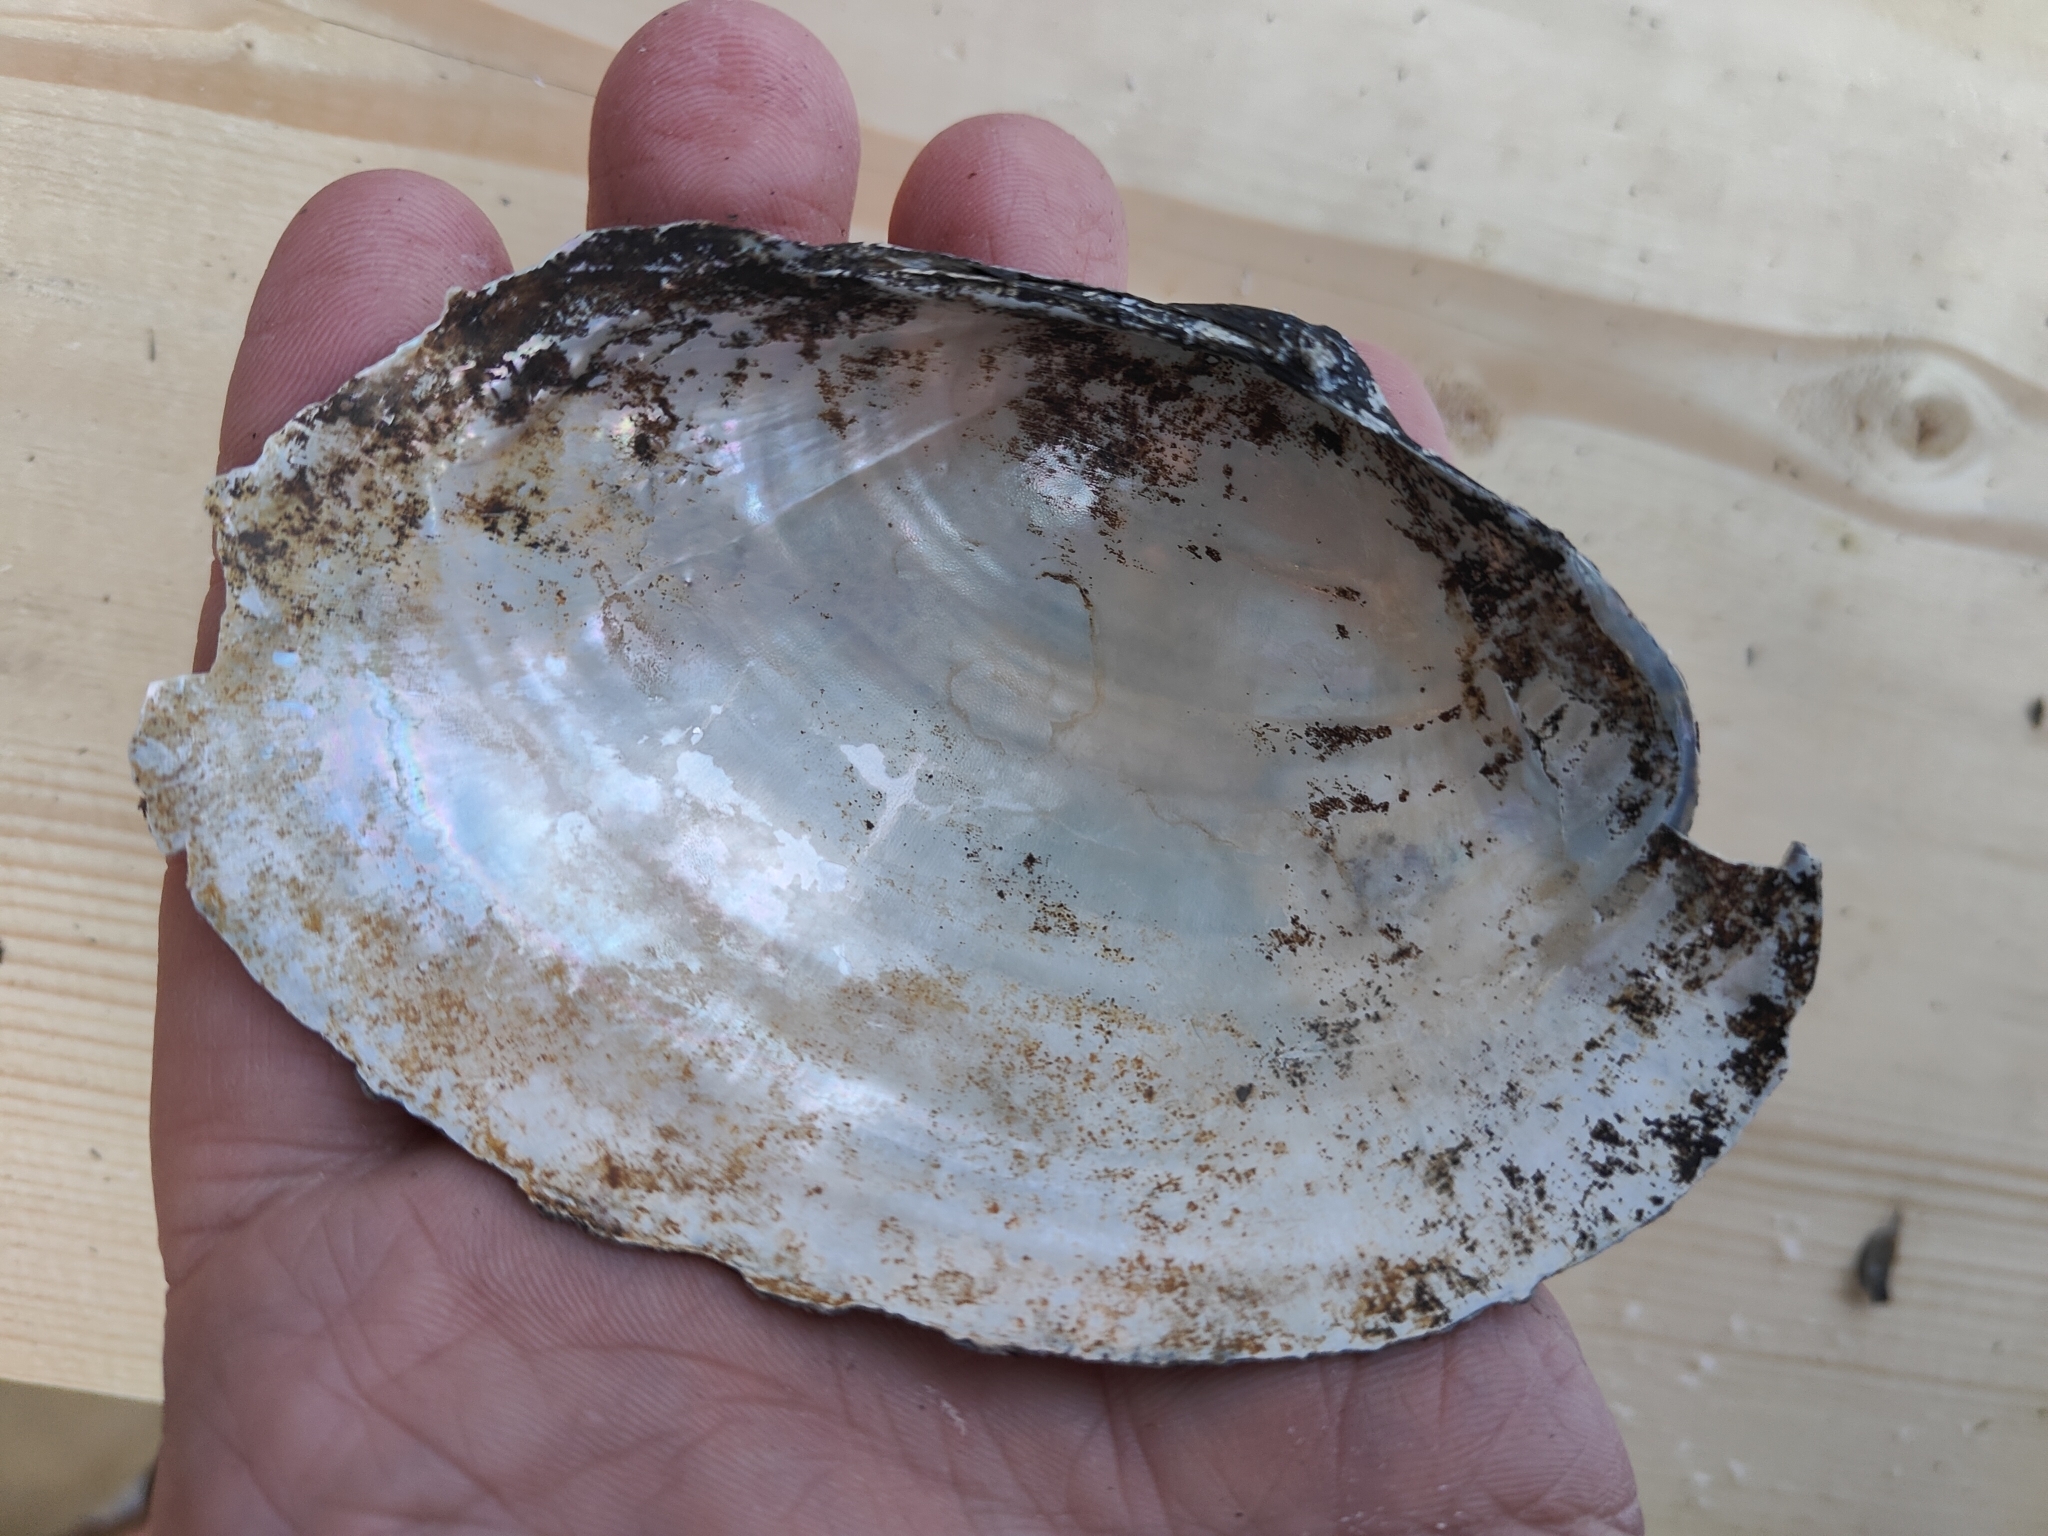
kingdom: Animalia
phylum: Mollusca
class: Bivalvia
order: Unionida
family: Unionidae
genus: Pyganodon
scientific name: Pyganodon grandis
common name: Giant floater
